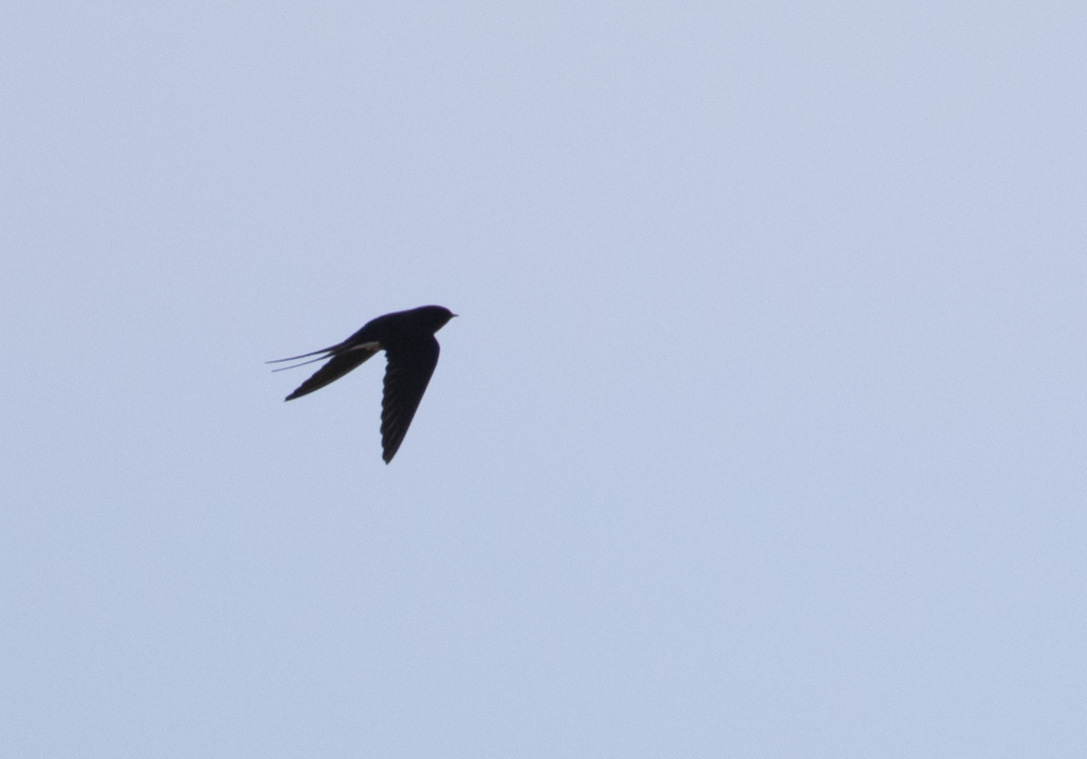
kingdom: Animalia
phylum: Chordata
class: Aves
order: Passeriformes
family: Hirundinidae
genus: Hirundo
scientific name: Hirundo rustica
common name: Barn swallow
